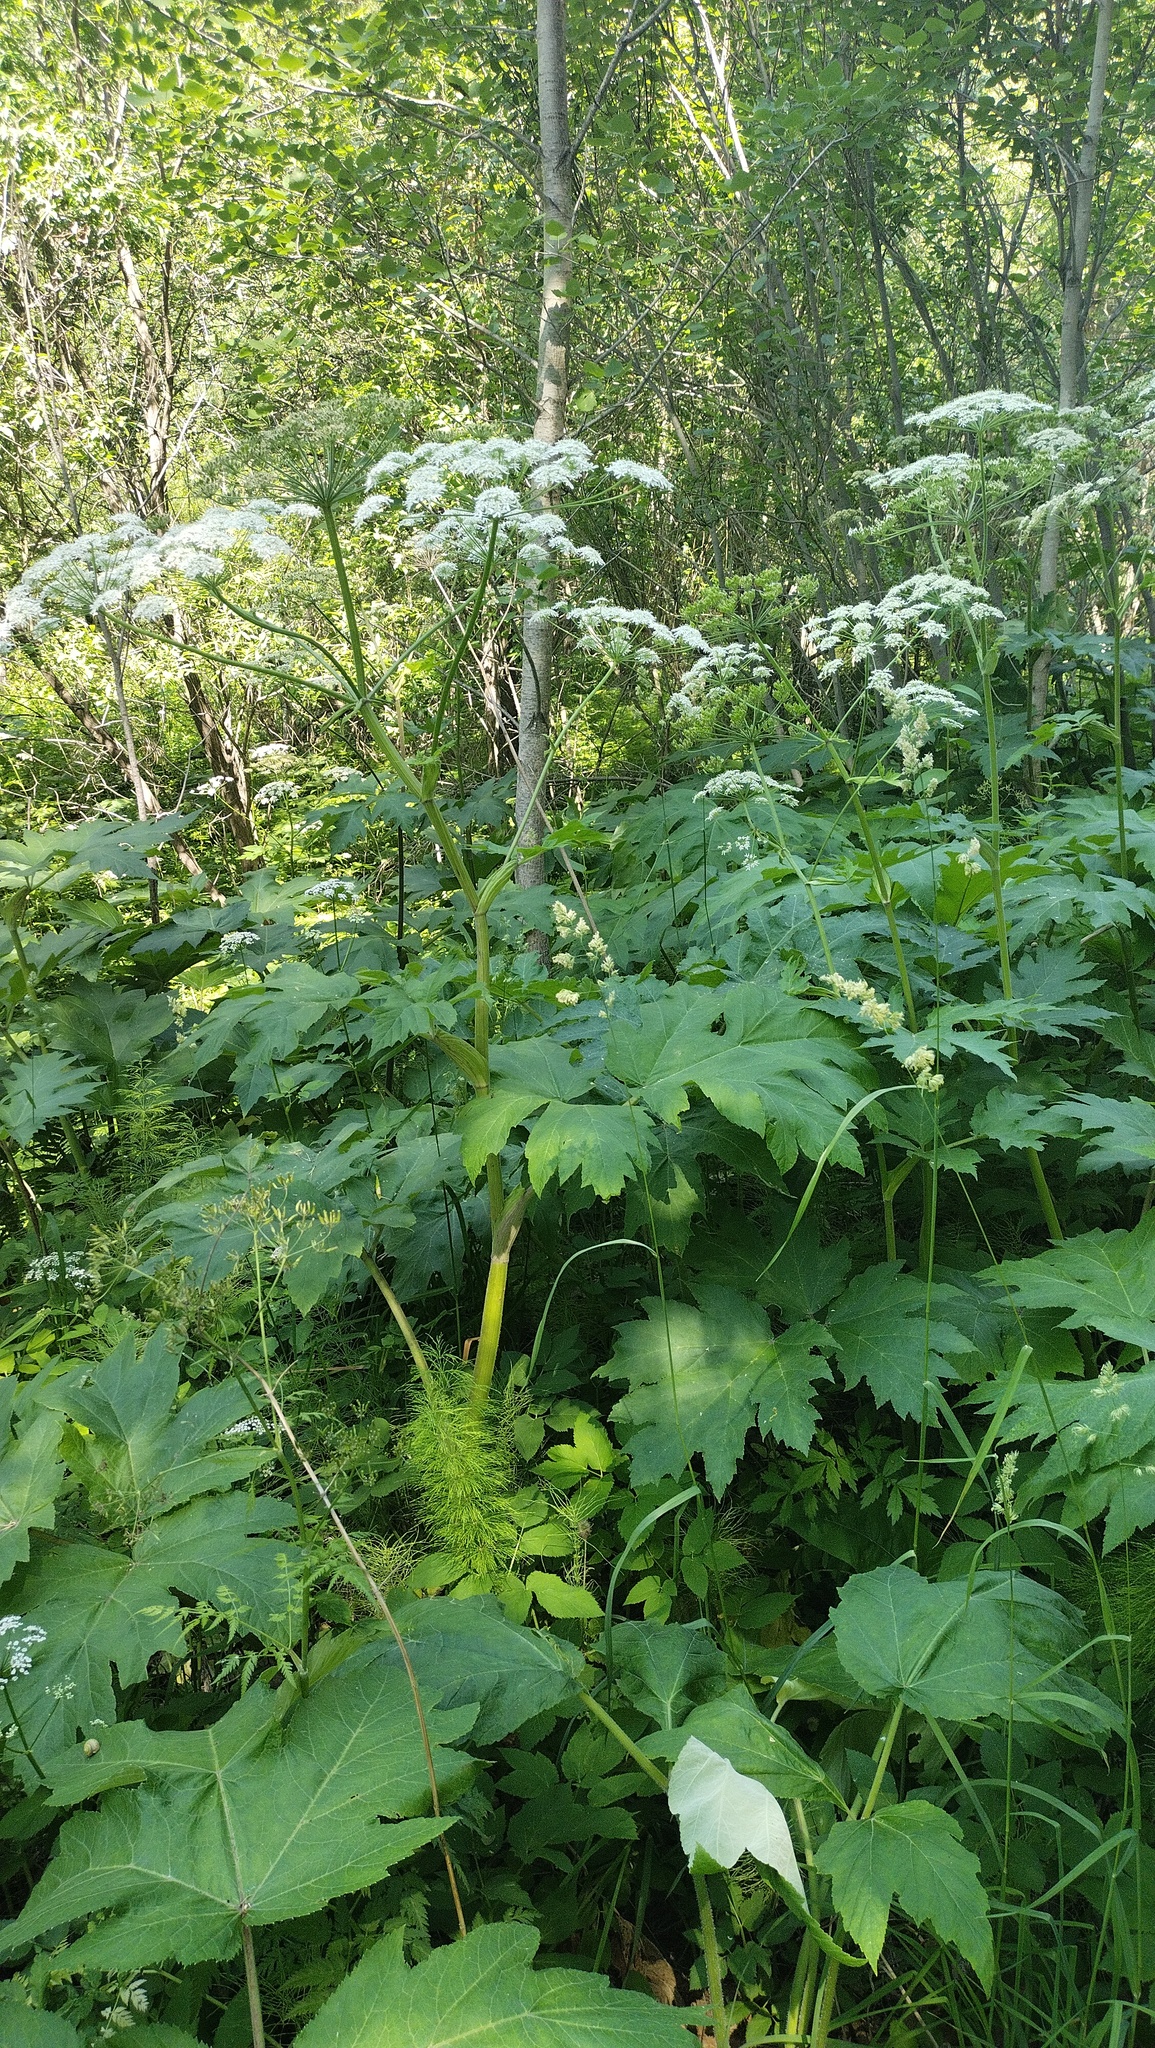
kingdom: Plantae
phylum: Tracheophyta
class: Magnoliopsida
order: Apiales
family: Apiaceae
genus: Heracleum
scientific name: Heracleum dissectum
